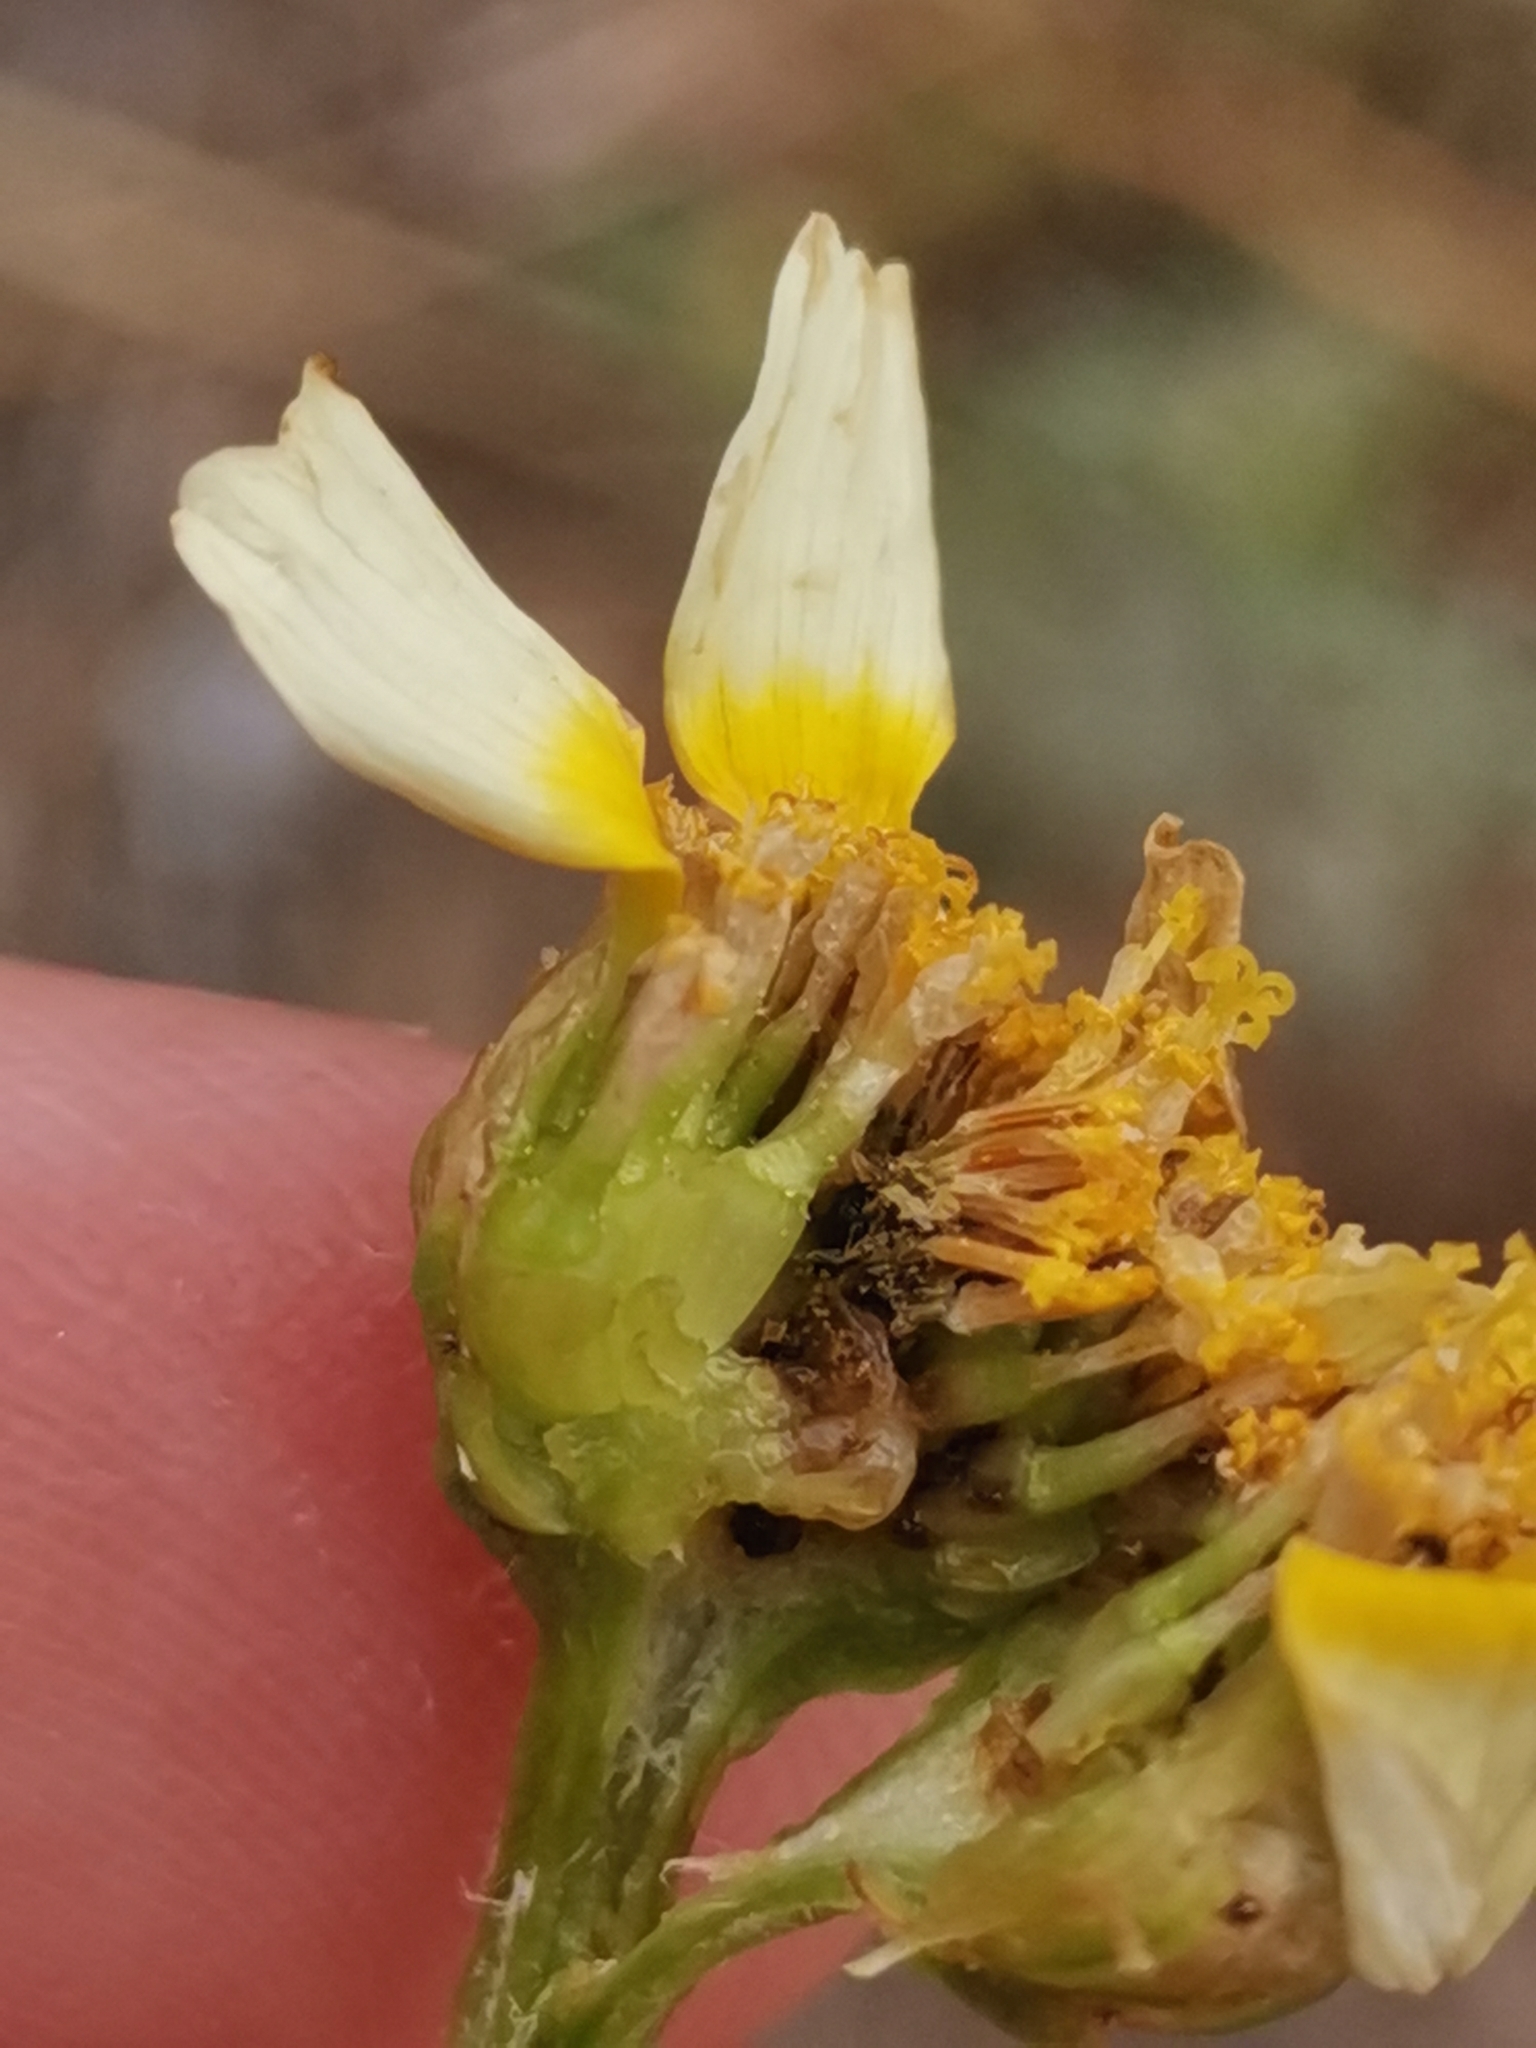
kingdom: Plantae
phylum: Tracheophyta
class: Magnoliopsida
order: Asterales
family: Asteraceae
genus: Glebionis
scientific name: Glebionis coronaria
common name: Crowndaisy
